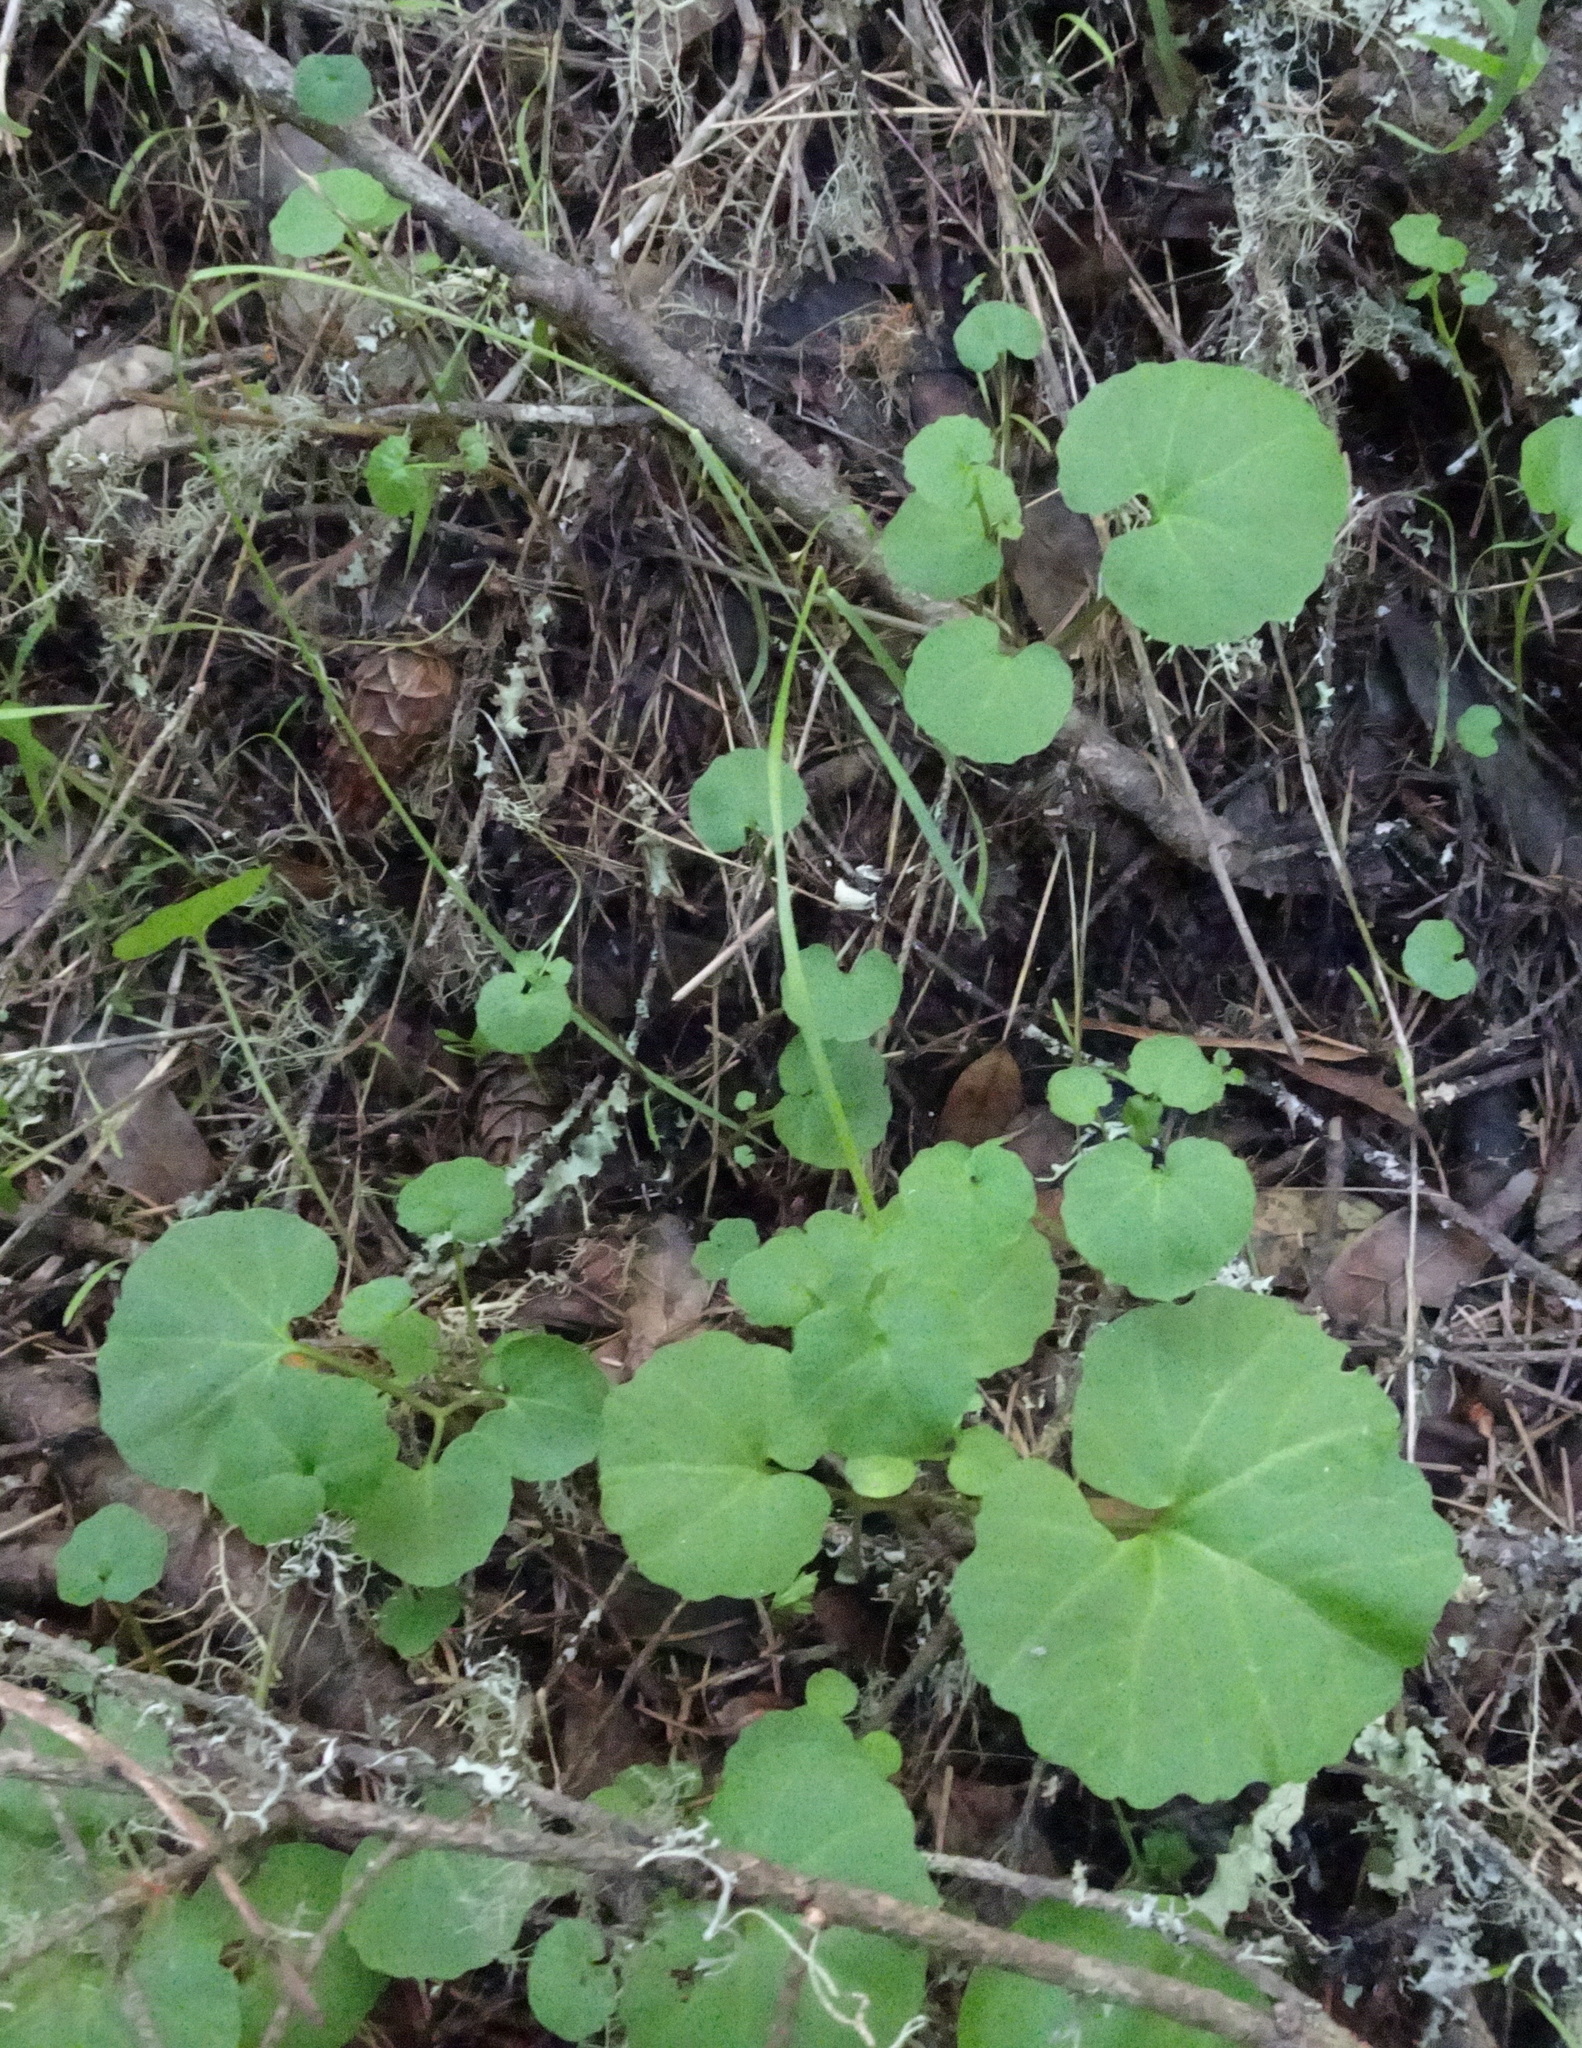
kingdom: Plantae
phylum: Tracheophyta
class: Magnoliopsida
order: Brassicales
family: Brassicaceae
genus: Cardamine
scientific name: Cardamine californica
